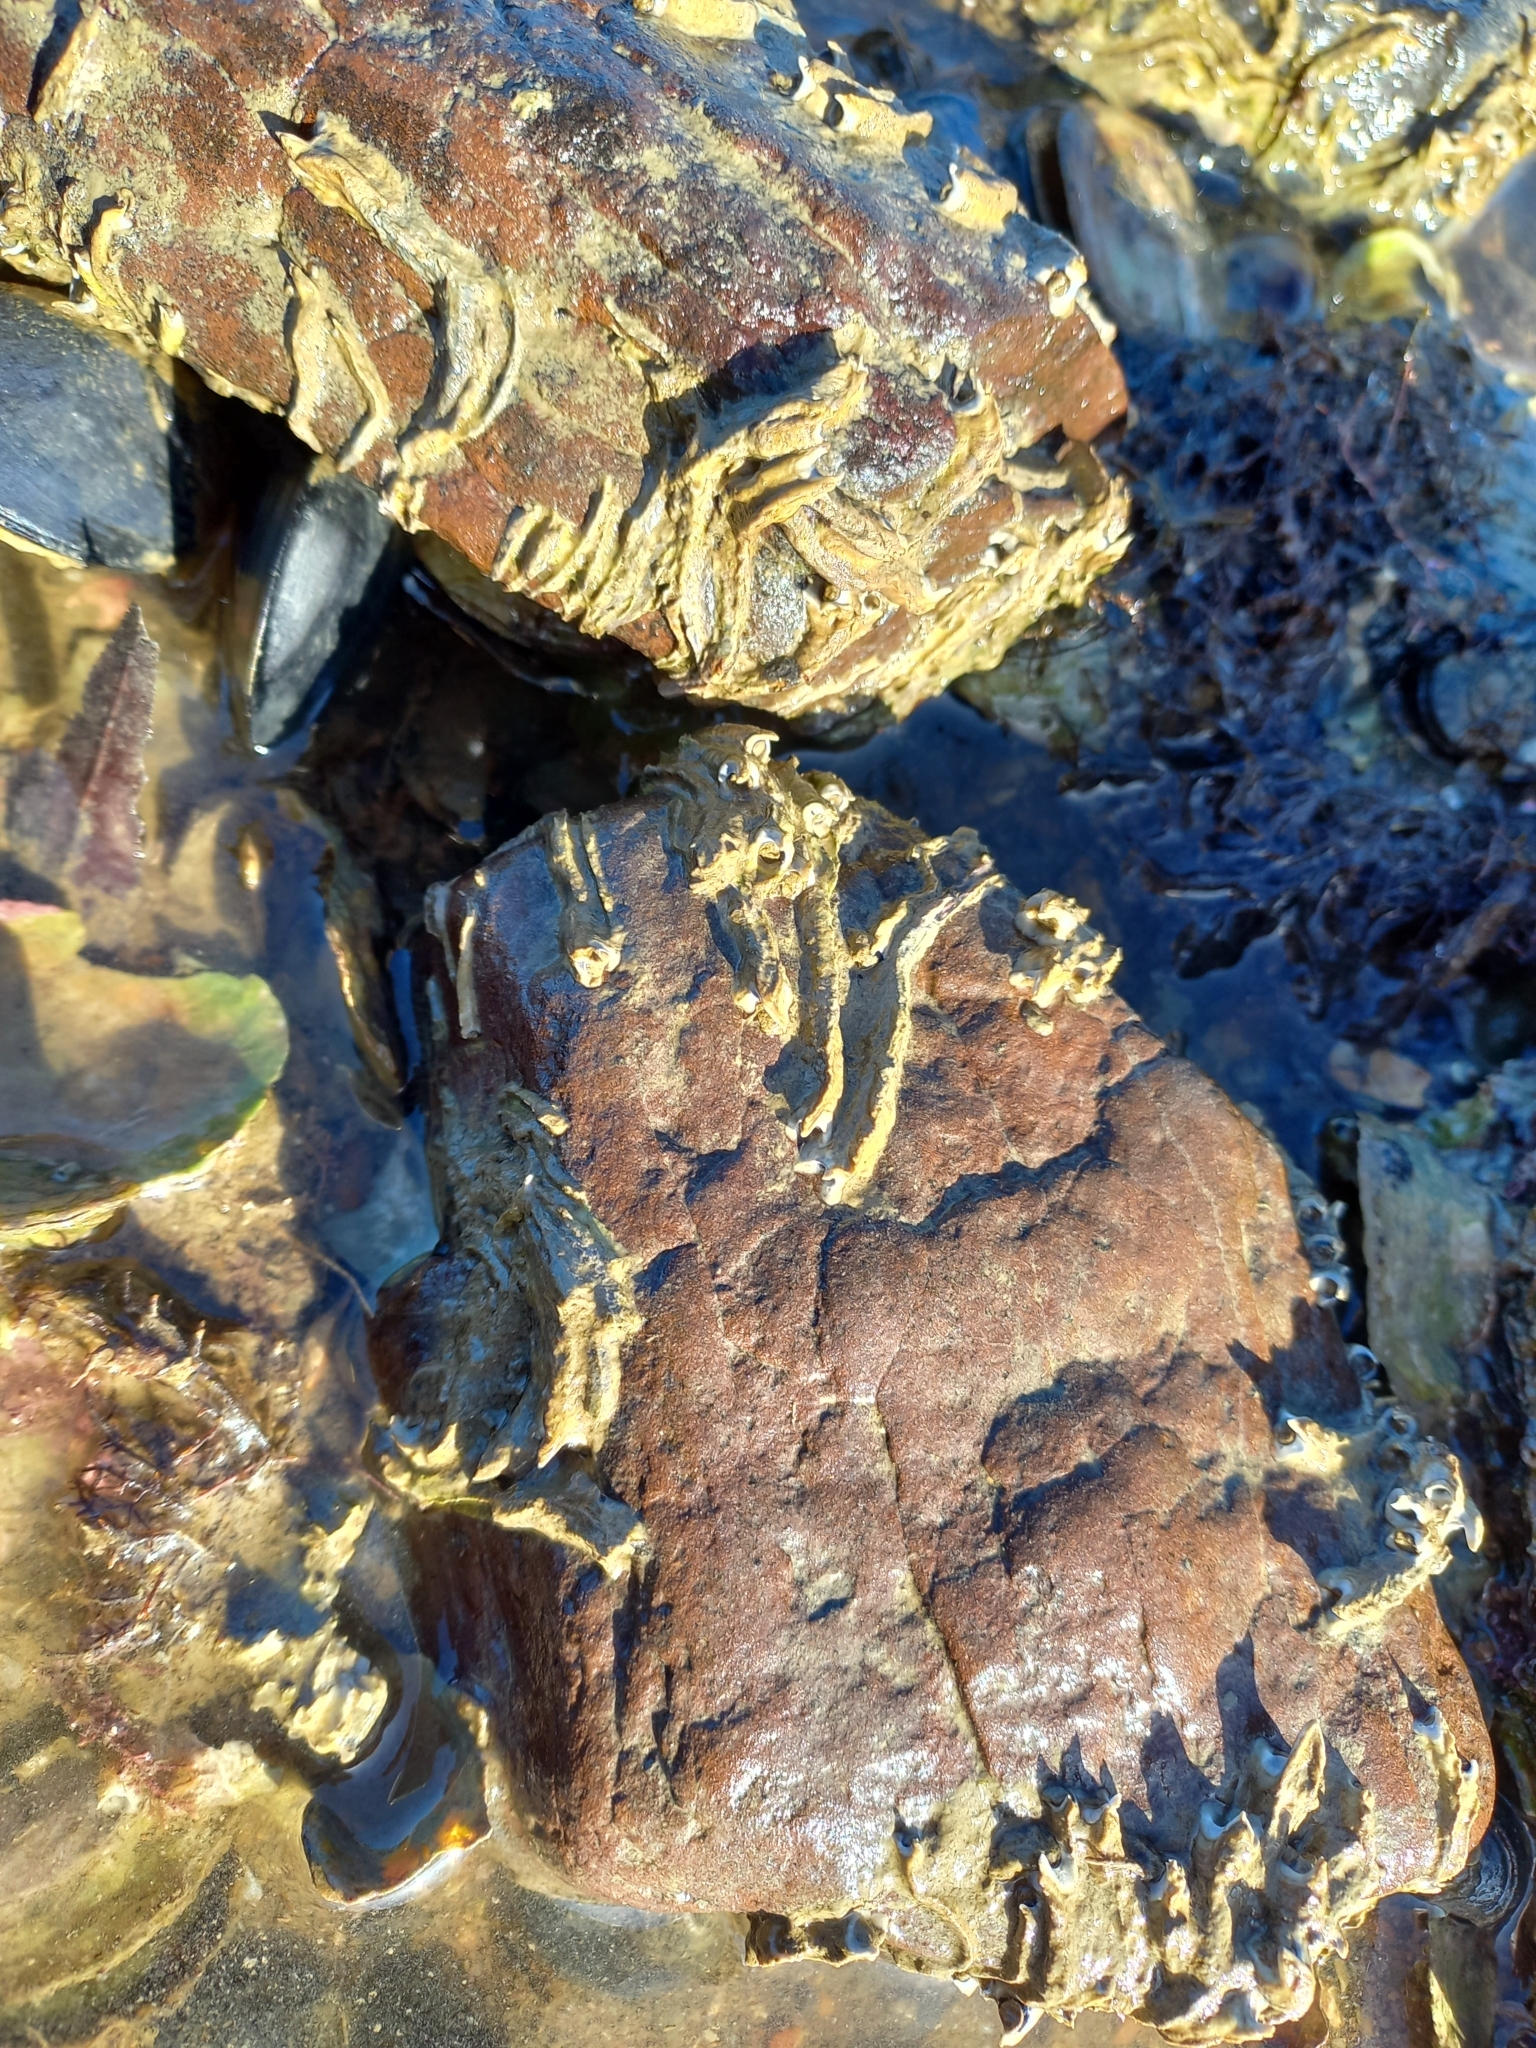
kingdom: Animalia
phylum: Annelida
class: Polychaeta
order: Sabellida
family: Serpulidae
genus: Spirobranchus
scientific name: Spirobranchus cariniferus
